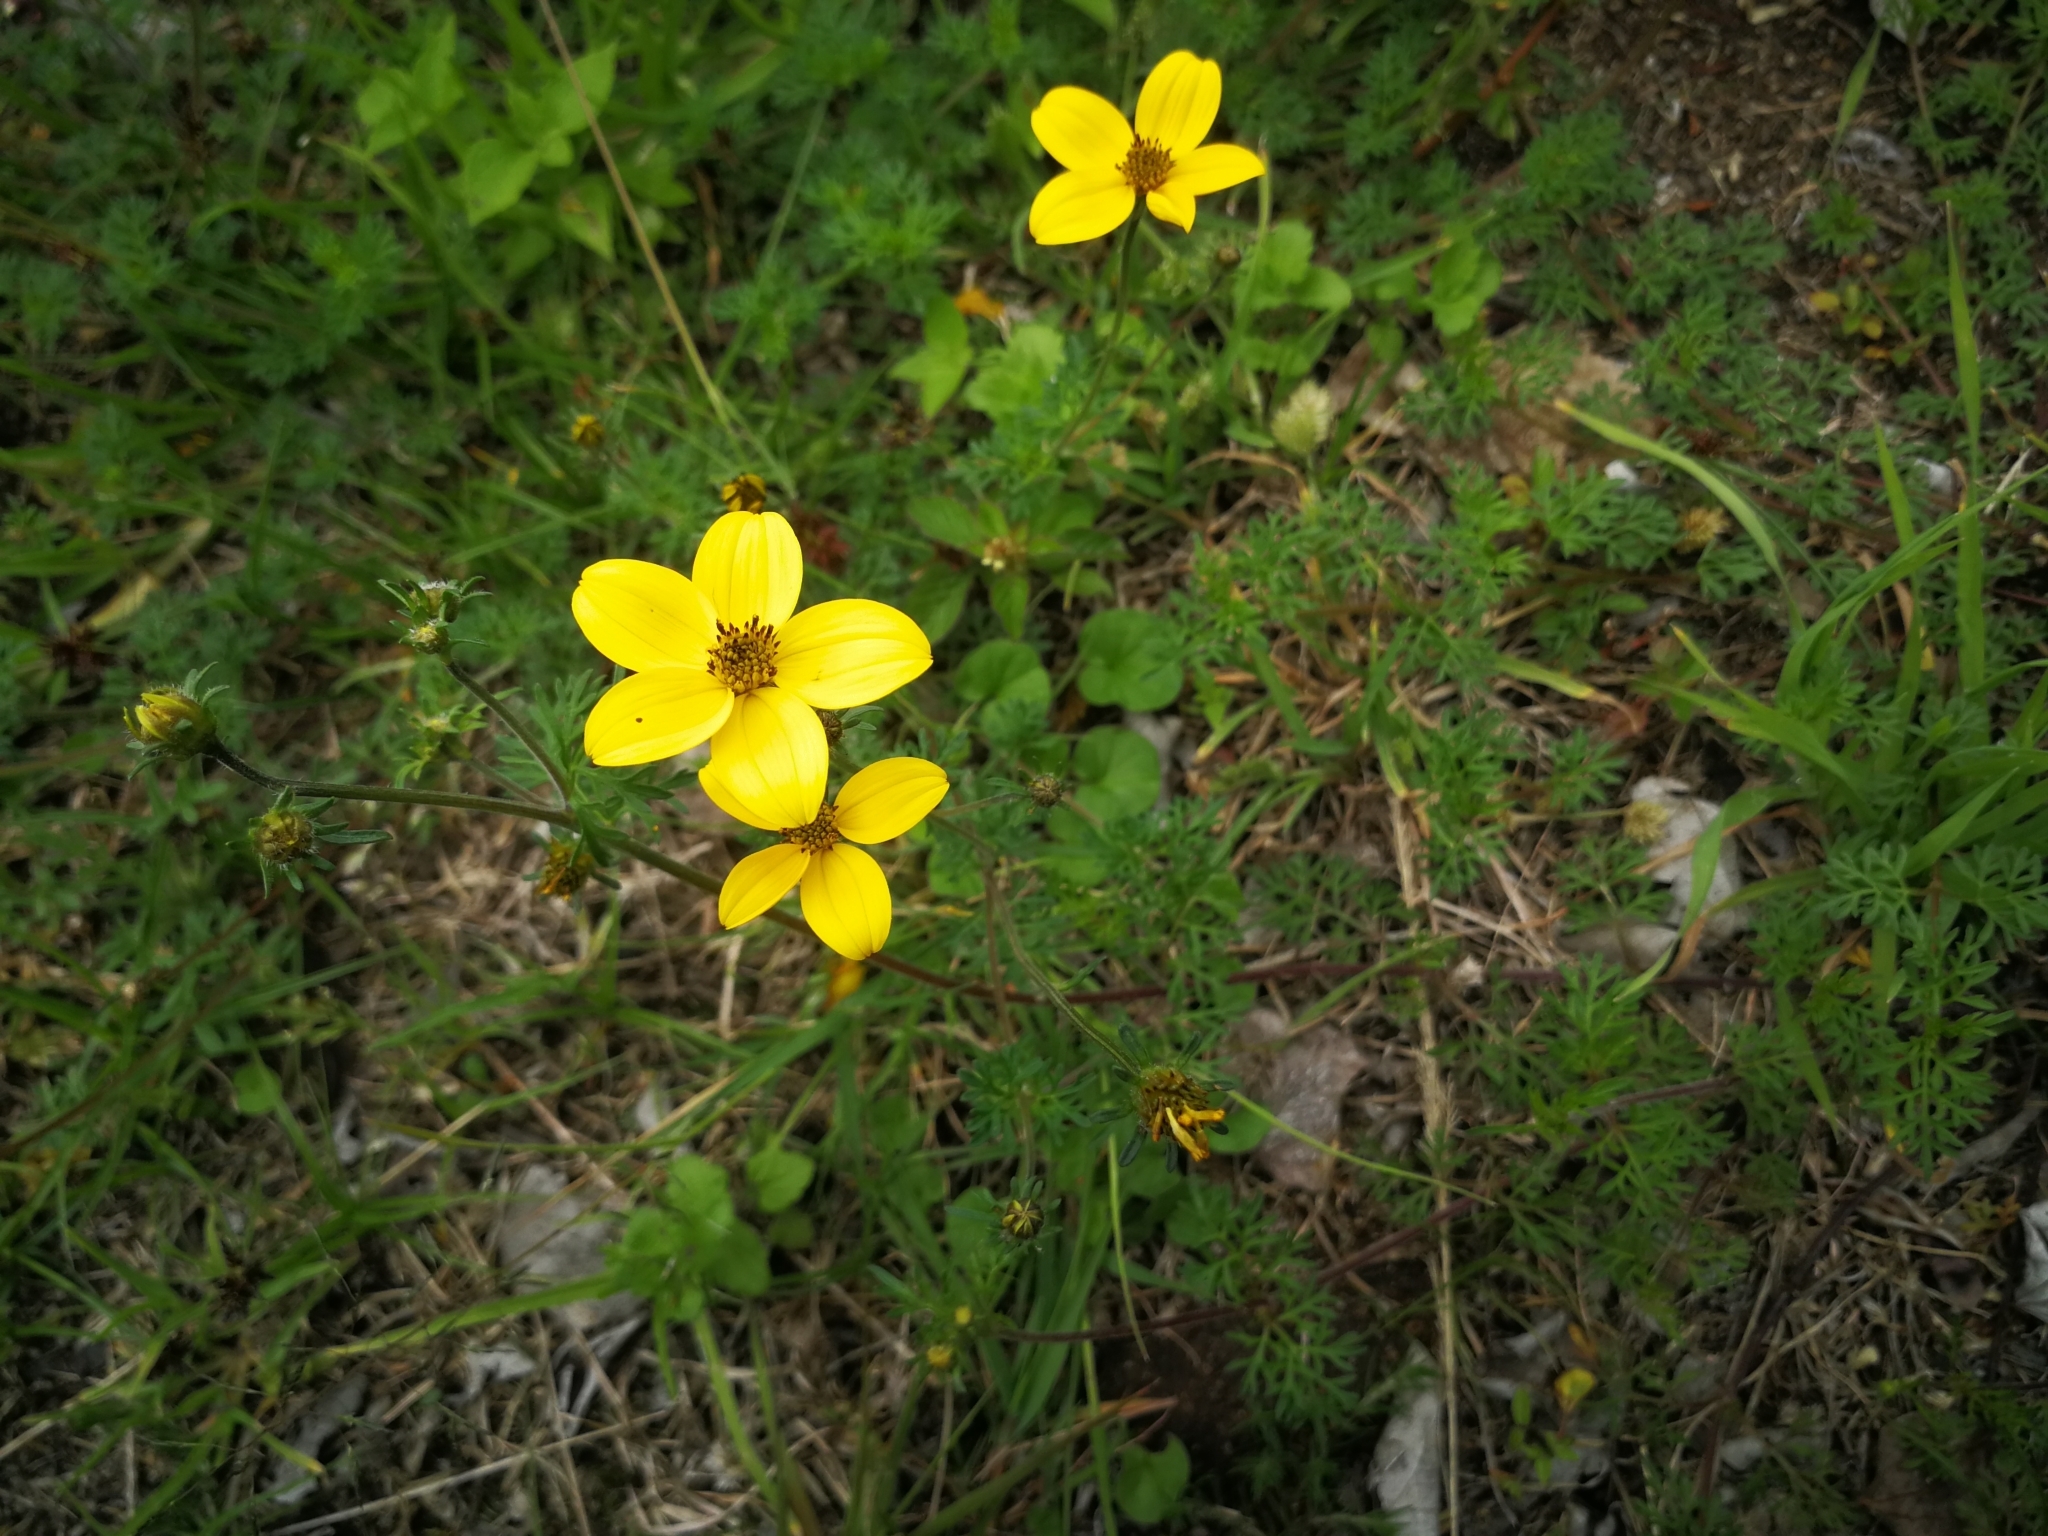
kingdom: Plantae
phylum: Tracheophyta
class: Magnoliopsida
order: Asterales
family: Asteraceae
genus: Bidens
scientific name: Bidens andicola
